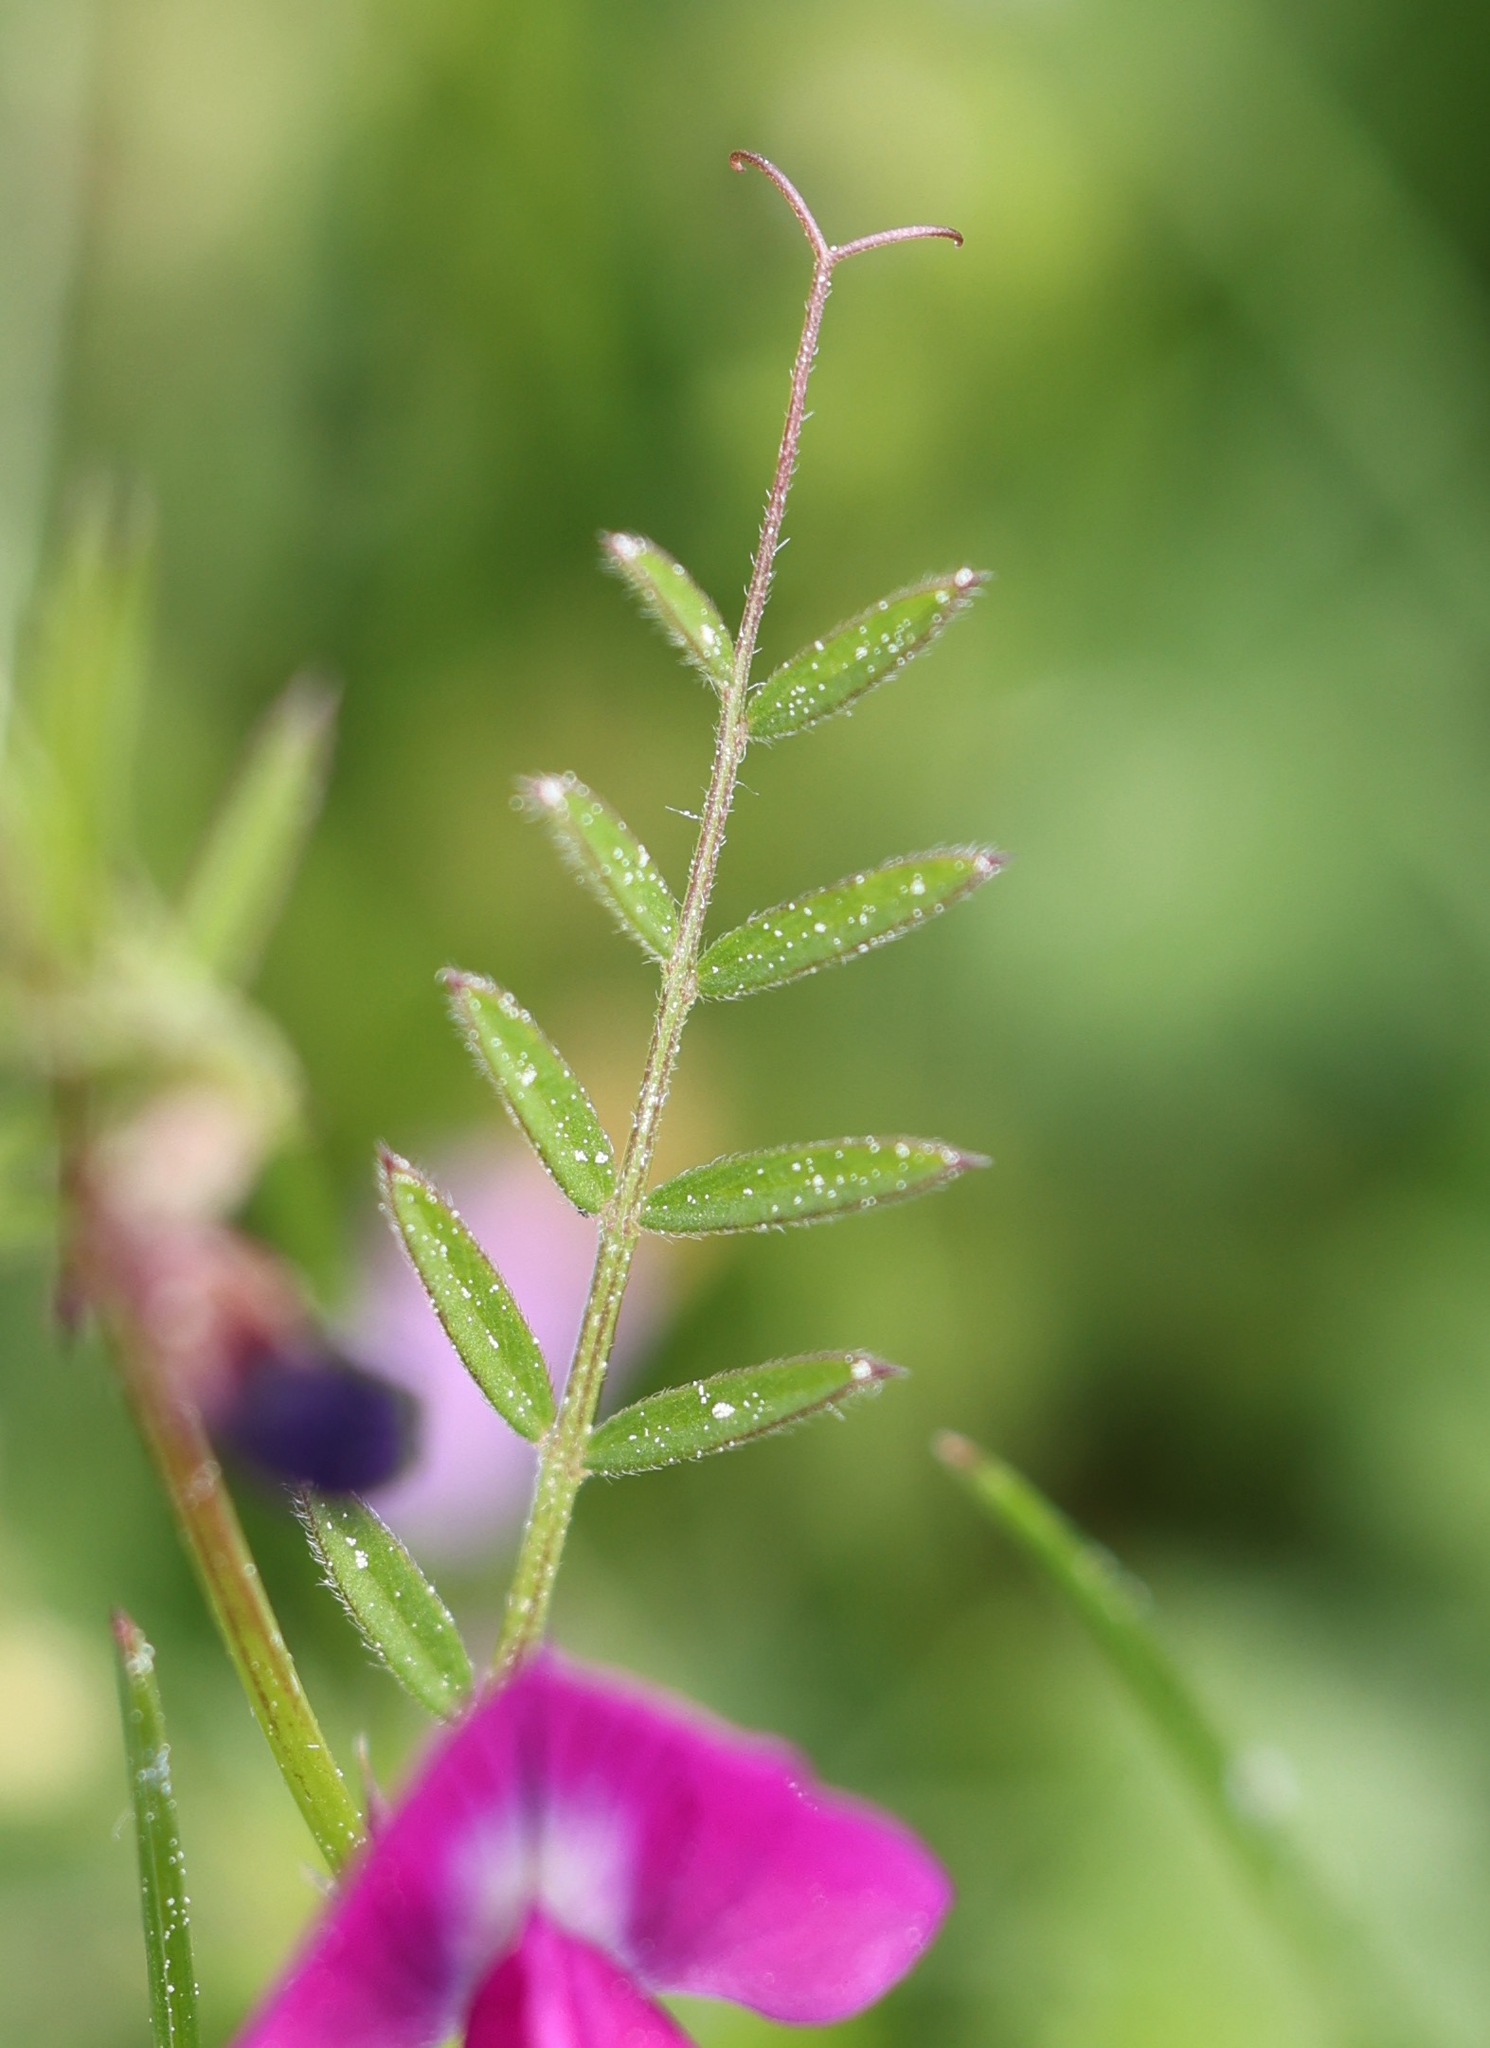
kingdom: Plantae
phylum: Tracheophyta
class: Magnoliopsida
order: Fabales
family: Fabaceae
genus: Vicia
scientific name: Vicia sativa
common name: Garden vetch
